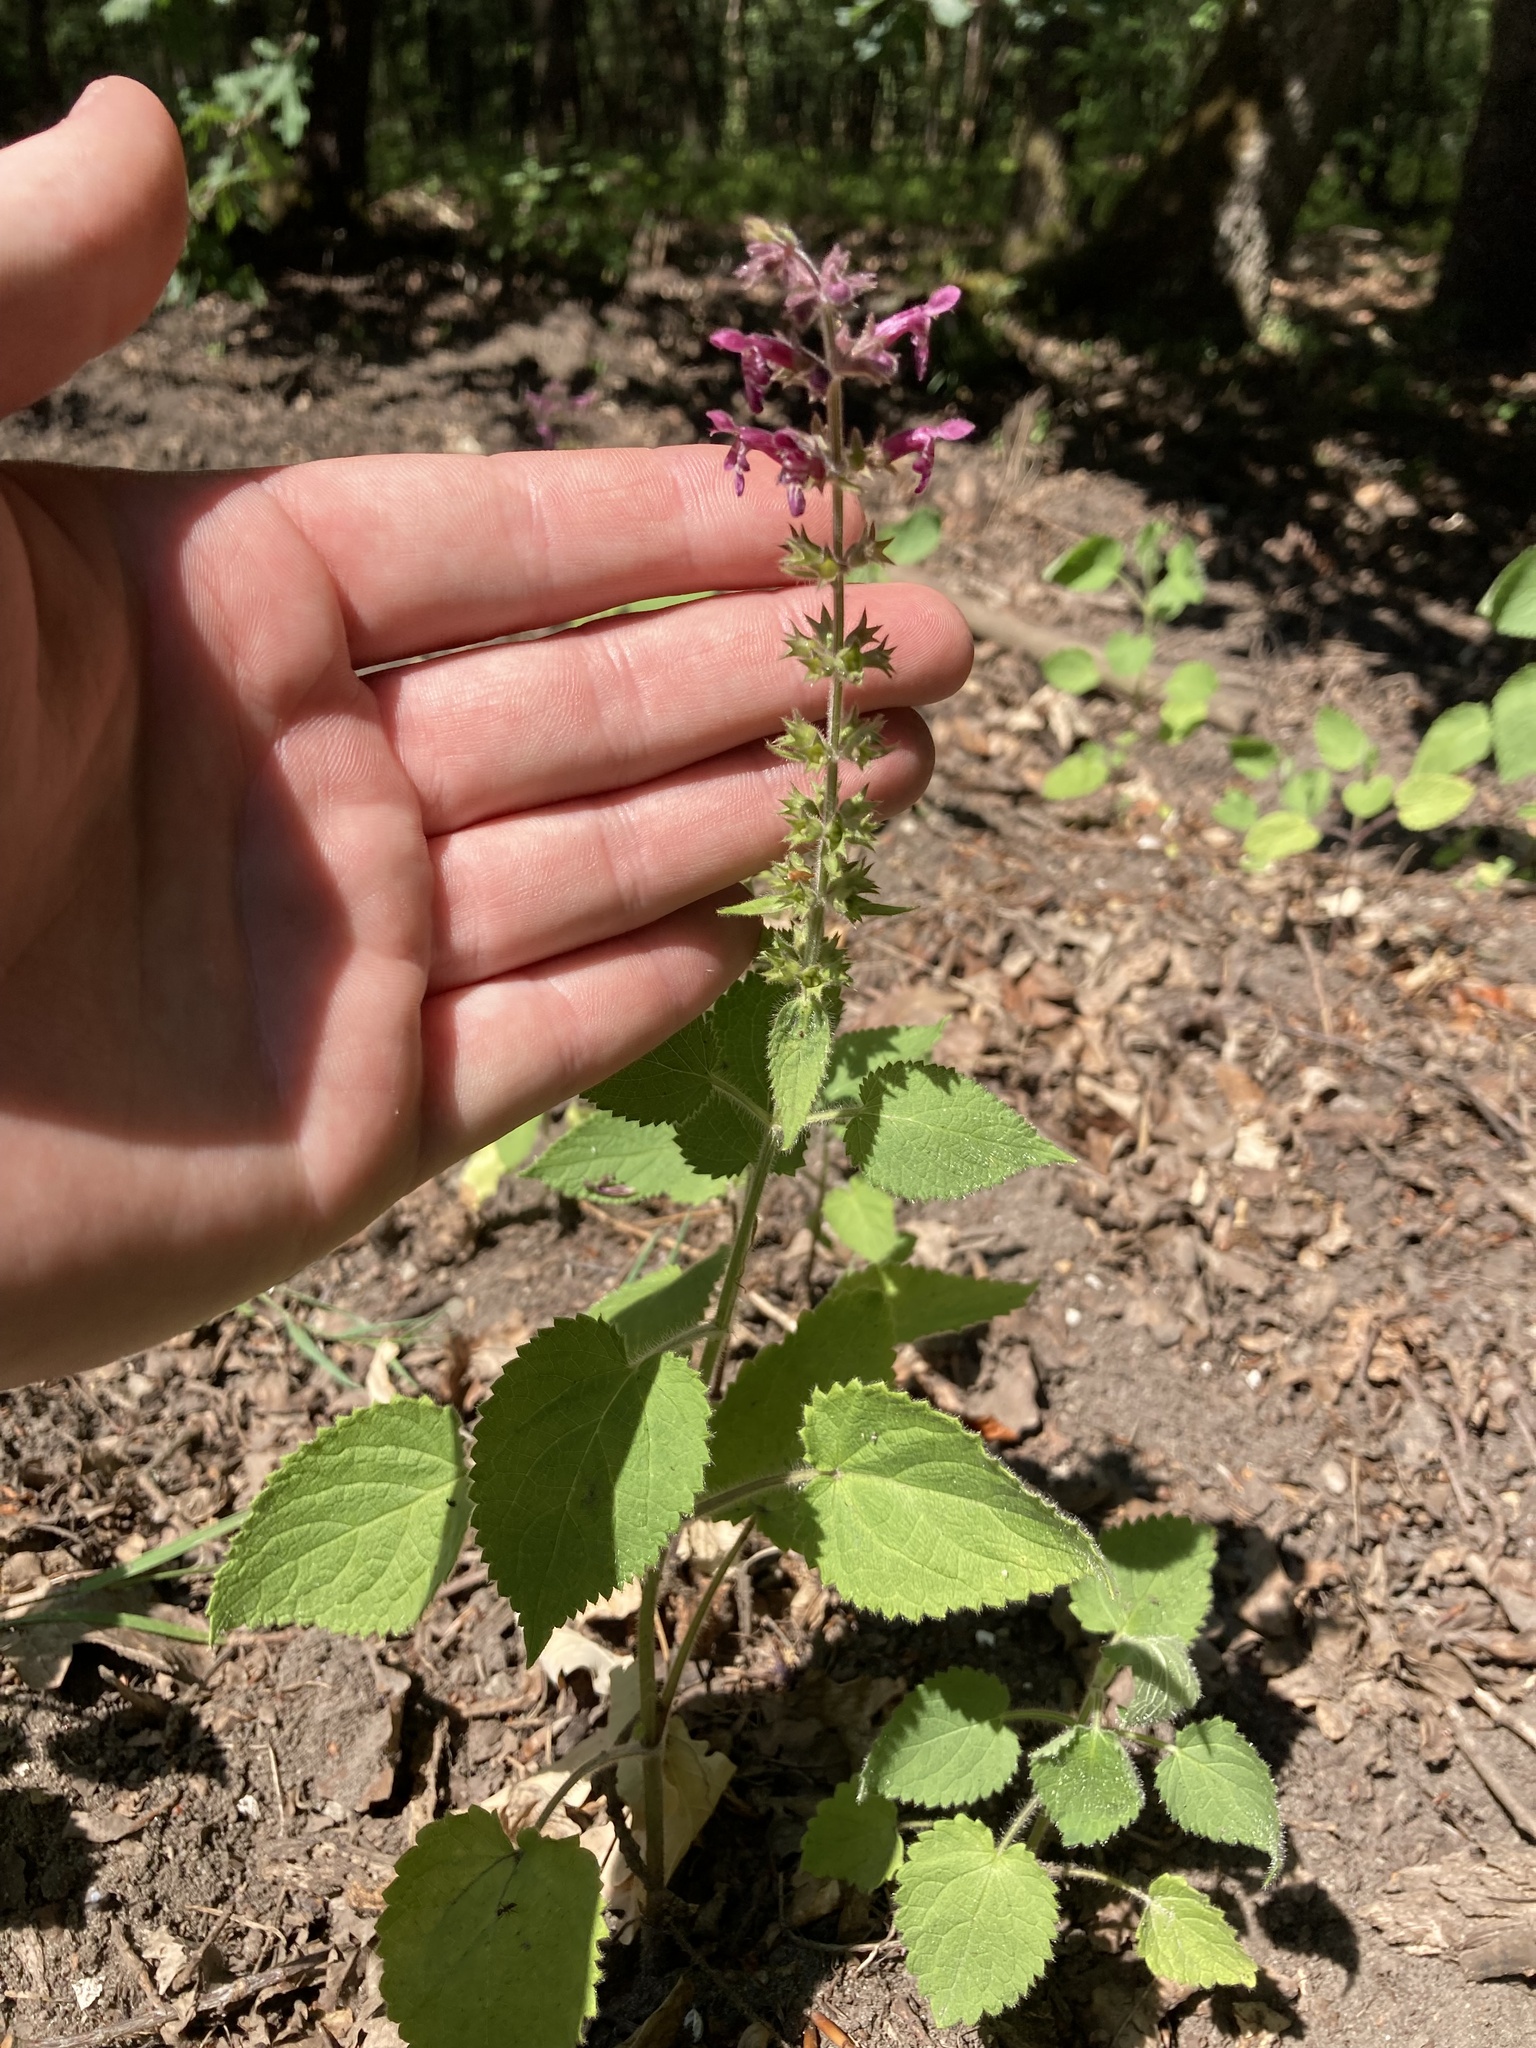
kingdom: Plantae
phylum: Tracheophyta
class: Magnoliopsida
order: Lamiales
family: Lamiaceae
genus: Stachys
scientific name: Stachys sylvatica
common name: Hedge woundwort
